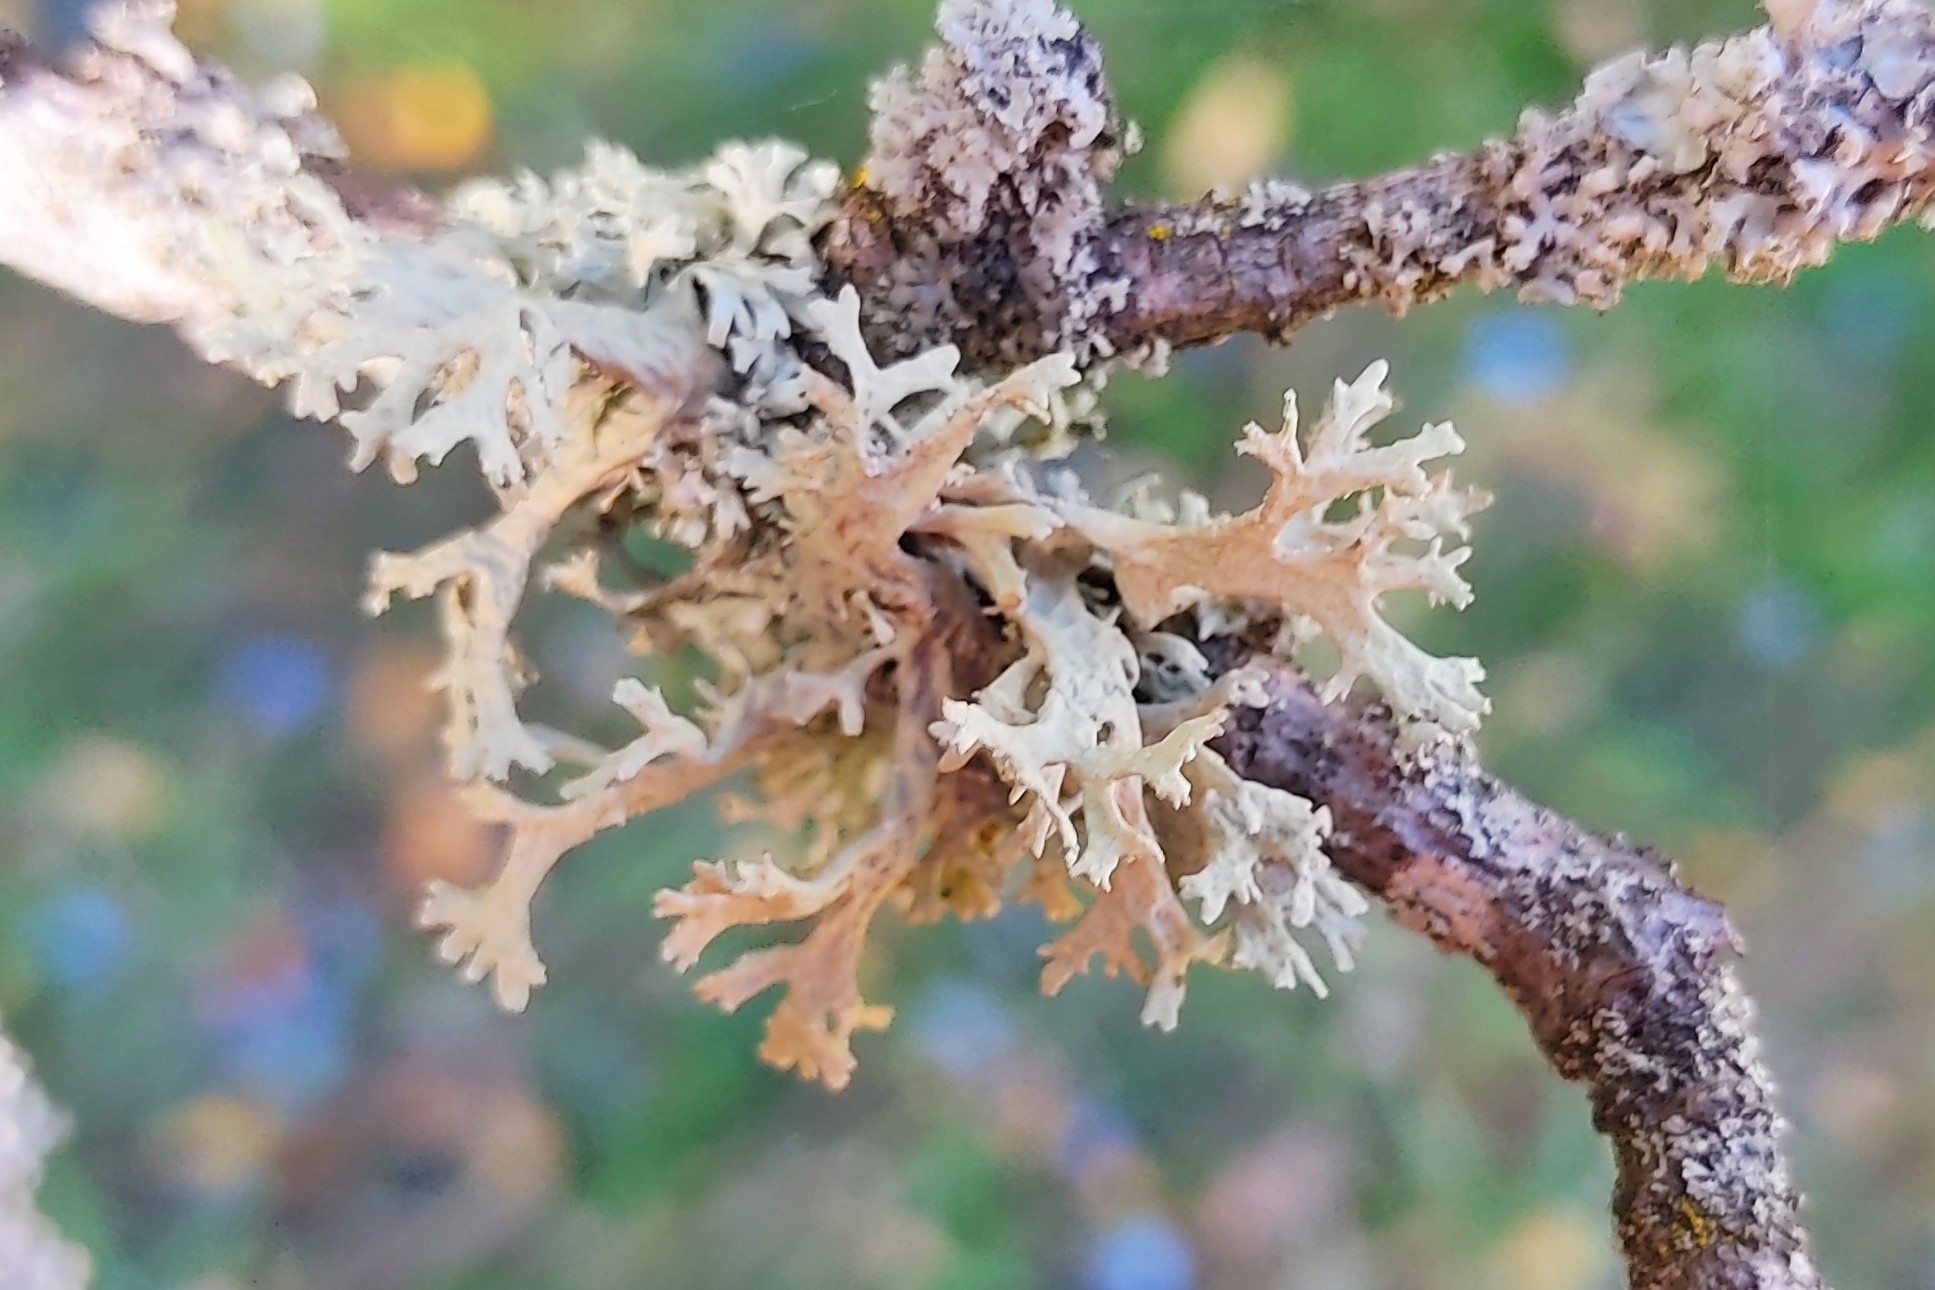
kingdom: Fungi
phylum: Ascomycota
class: Lecanoromycetes
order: Lecanorales
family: Parmeliaceae
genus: Evernia
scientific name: Evernia prunastri
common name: Oak moss
